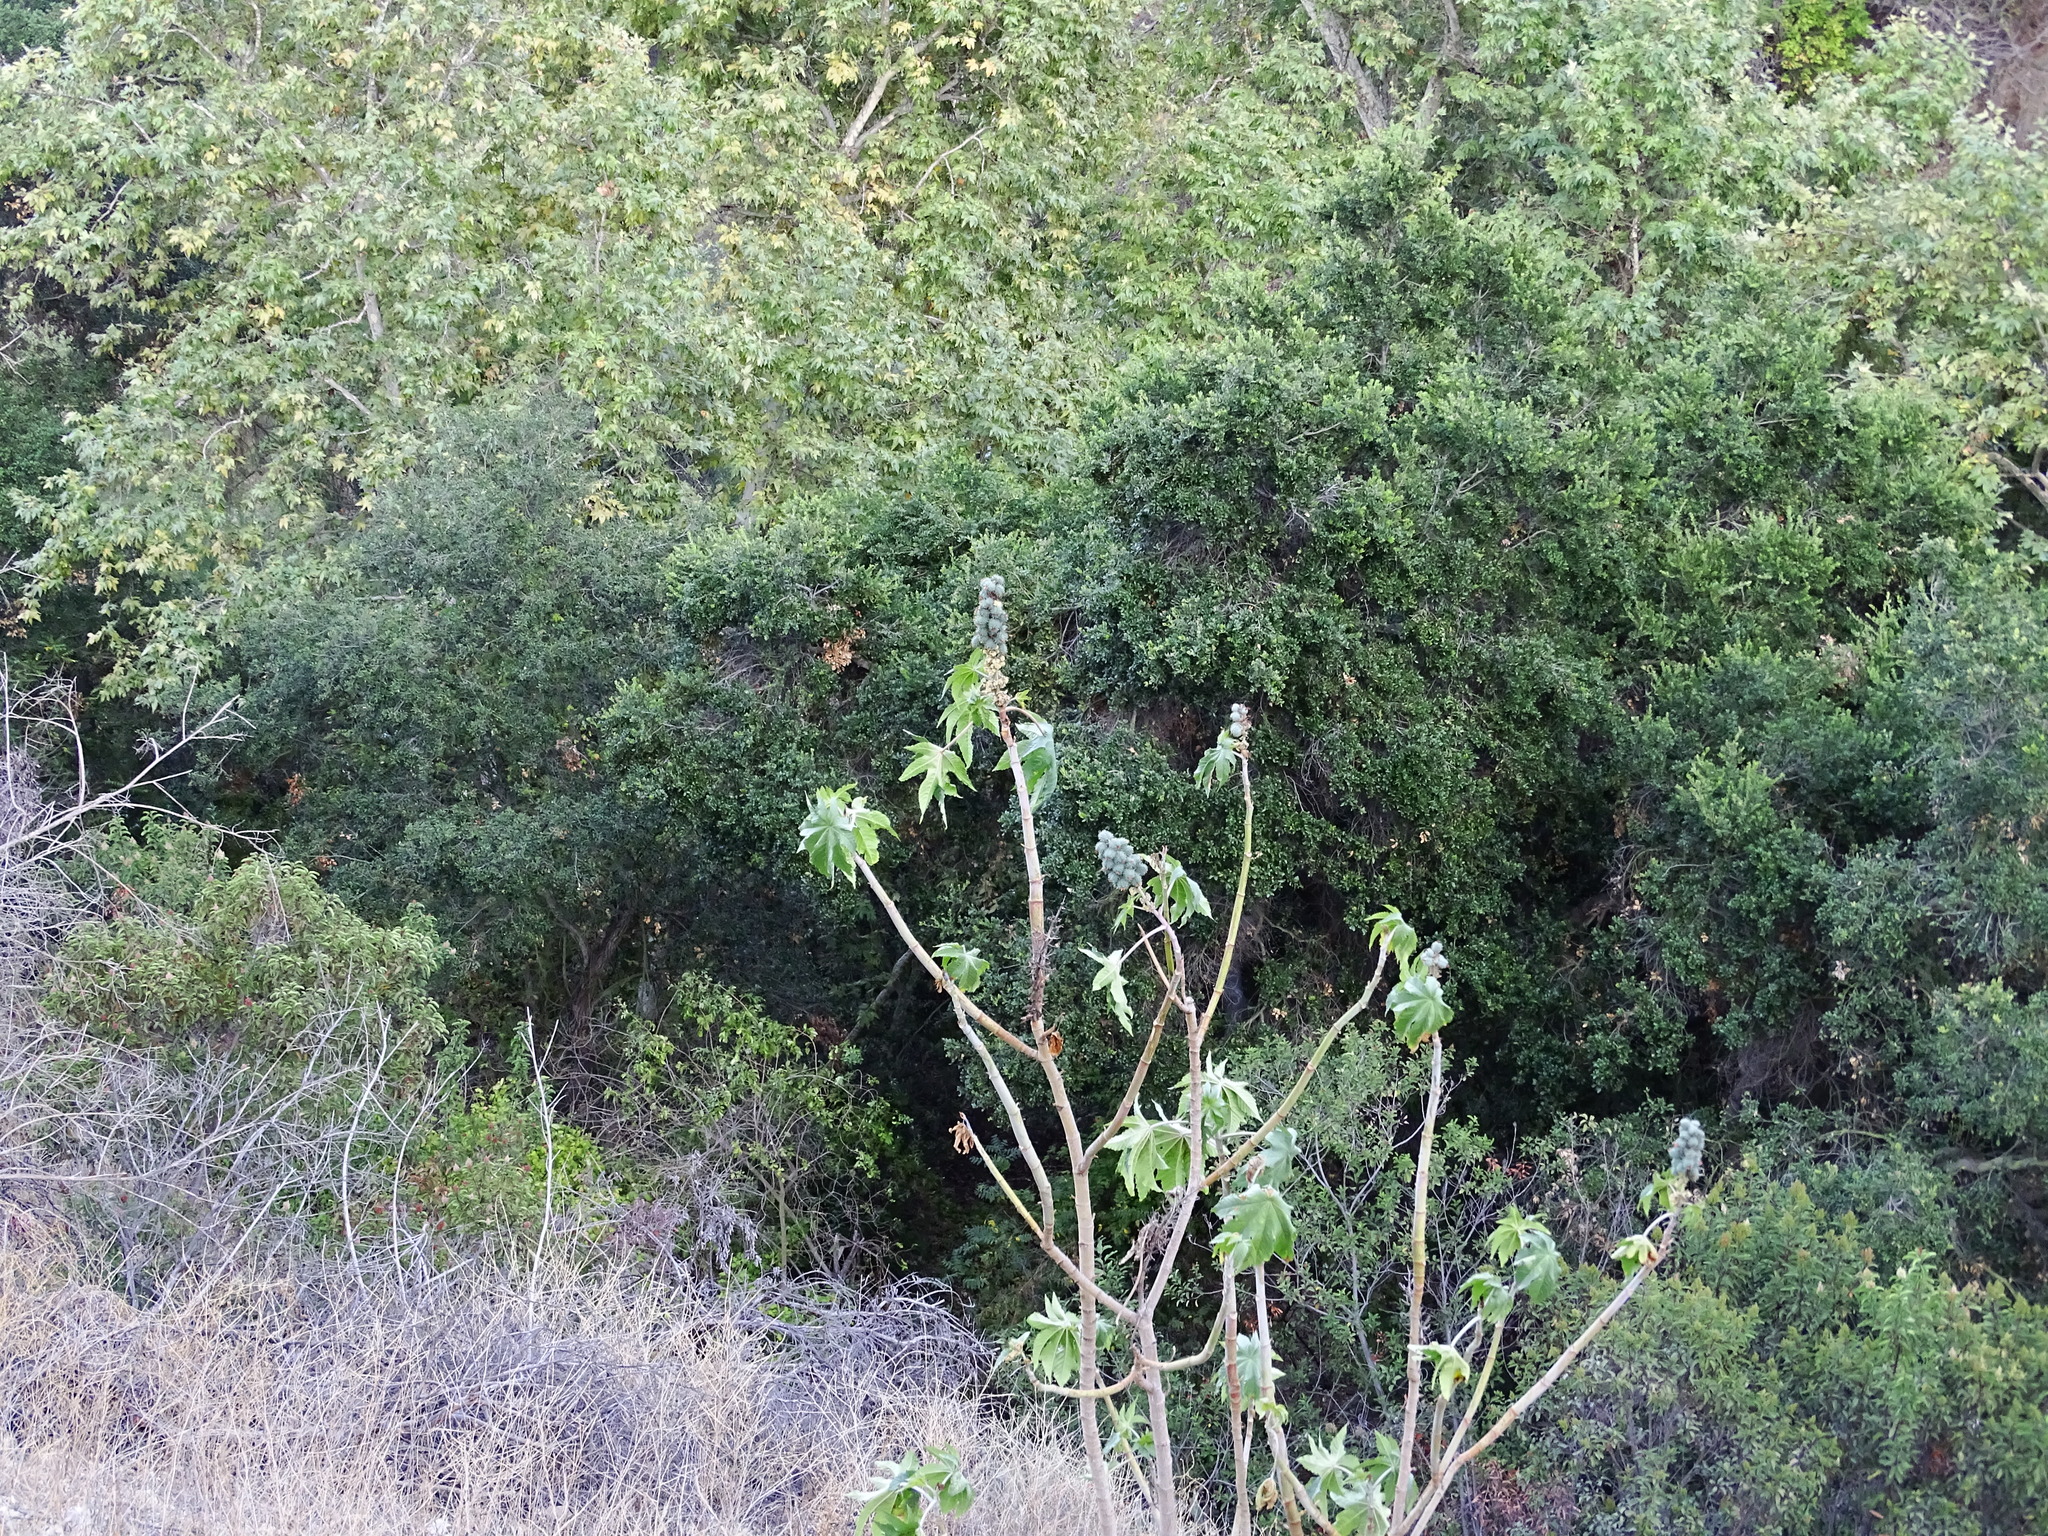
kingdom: Plantae
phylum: Tracheophyta
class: Magnoliopsida
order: Malpighiales
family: Euphorbiaceae
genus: Ricinus
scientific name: Ricinus communis
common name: Castor-oil-plant
